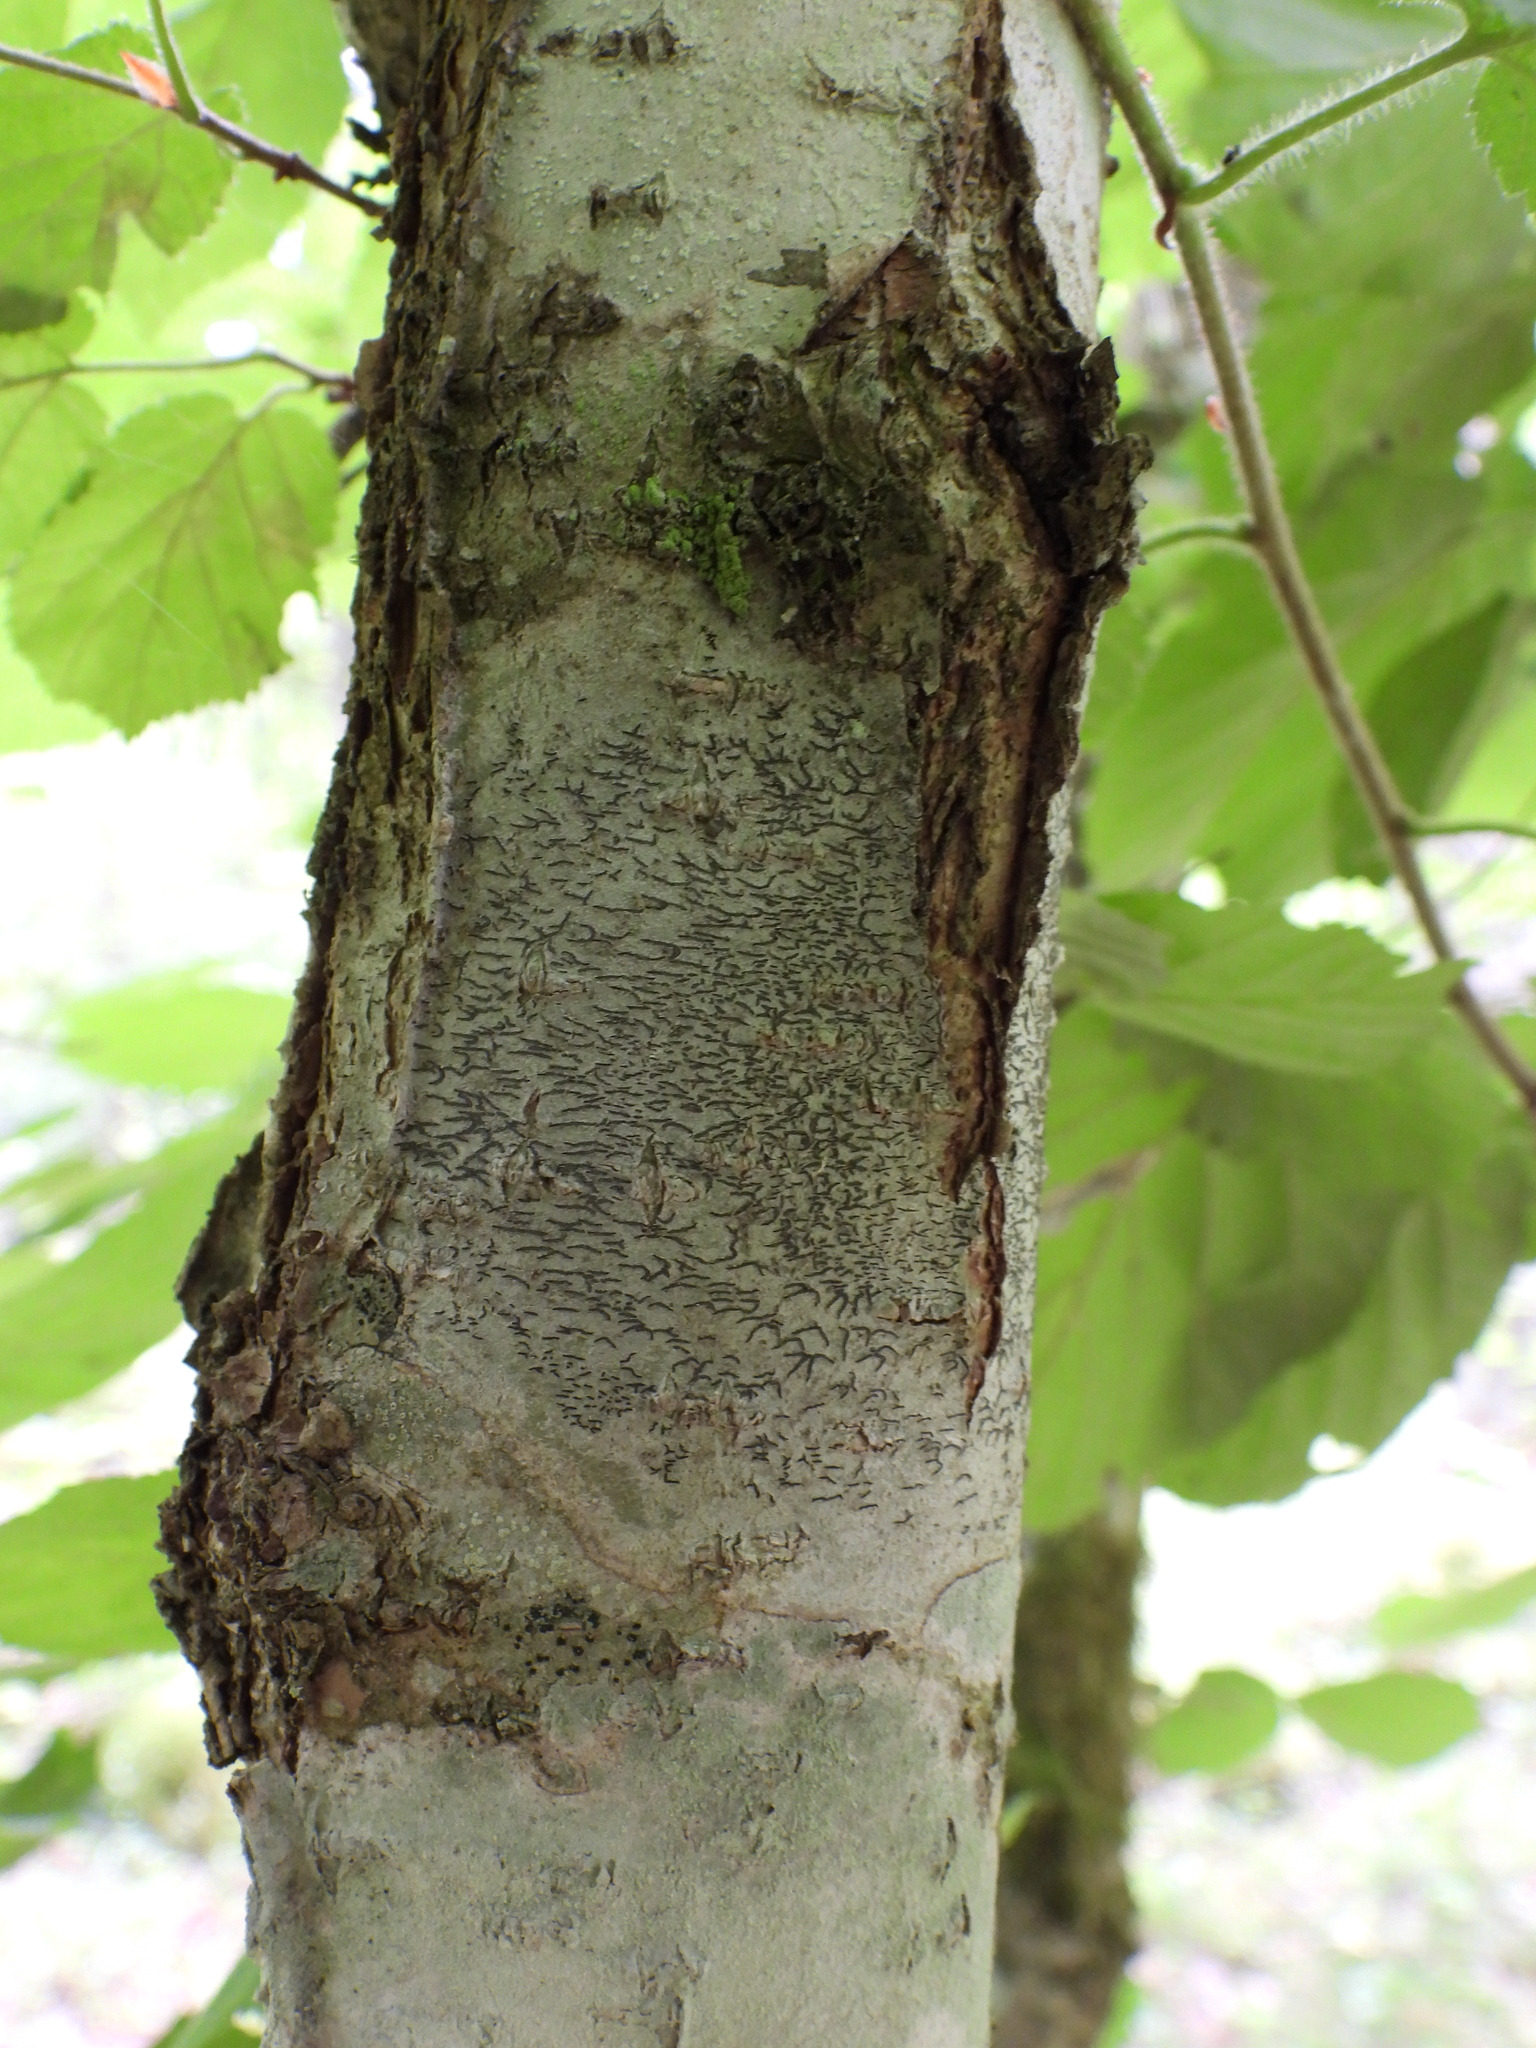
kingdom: Fungi
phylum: Ascomycota
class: Lecanoromycetes
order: Ostropales
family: Graphidaceae
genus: Graphis
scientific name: Graphis scripta
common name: Script lichen
